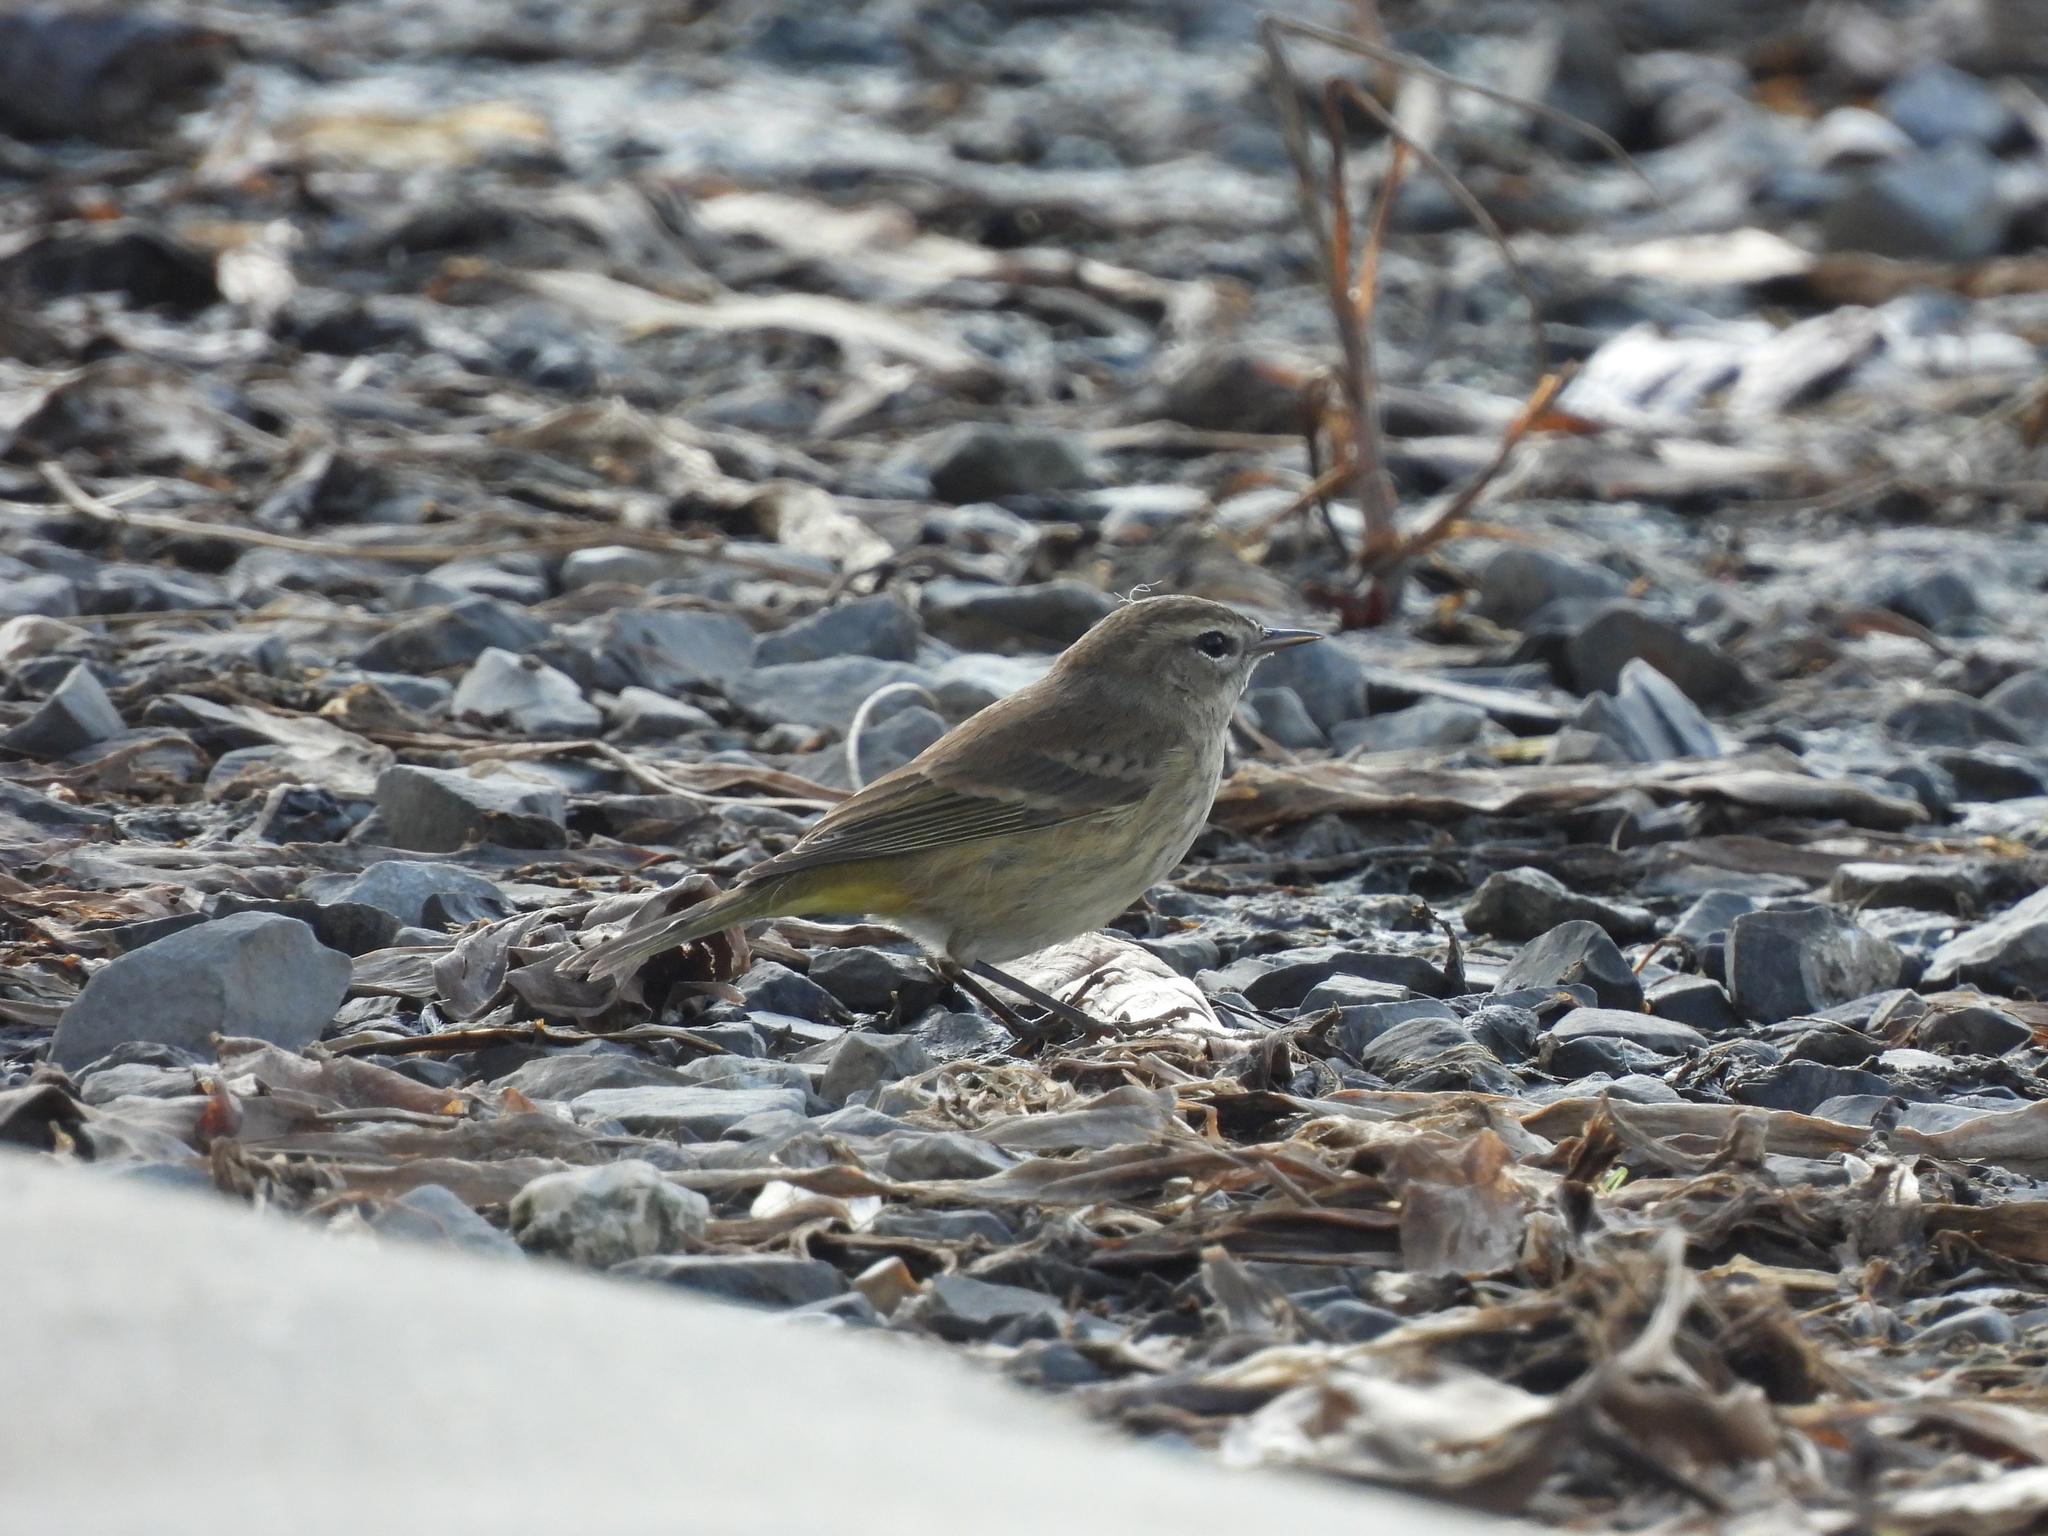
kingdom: Animalia
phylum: Chordata
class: Aves
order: Passeriformes
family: Parulidae
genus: Setophaga
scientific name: Setophaga palmarum
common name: Palm warbler
